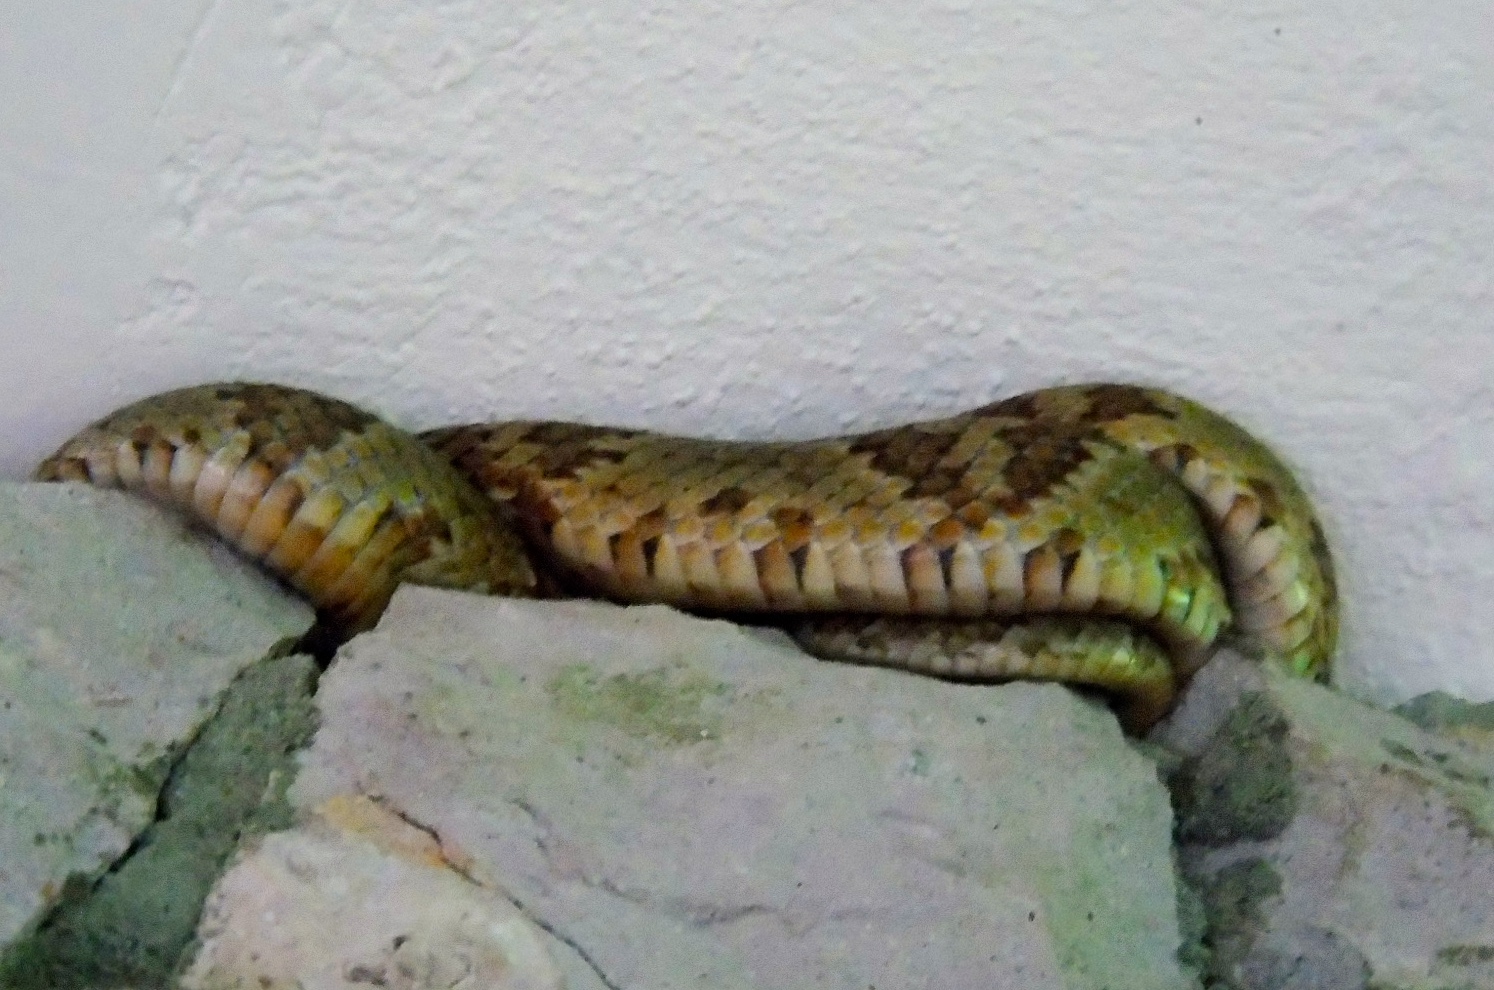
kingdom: Animalia
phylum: Chordata
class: Squamata
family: Colubridae
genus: Trimorphodon
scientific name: Trimorphodon paucimaculatus
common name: Sinaloan lyresnake
